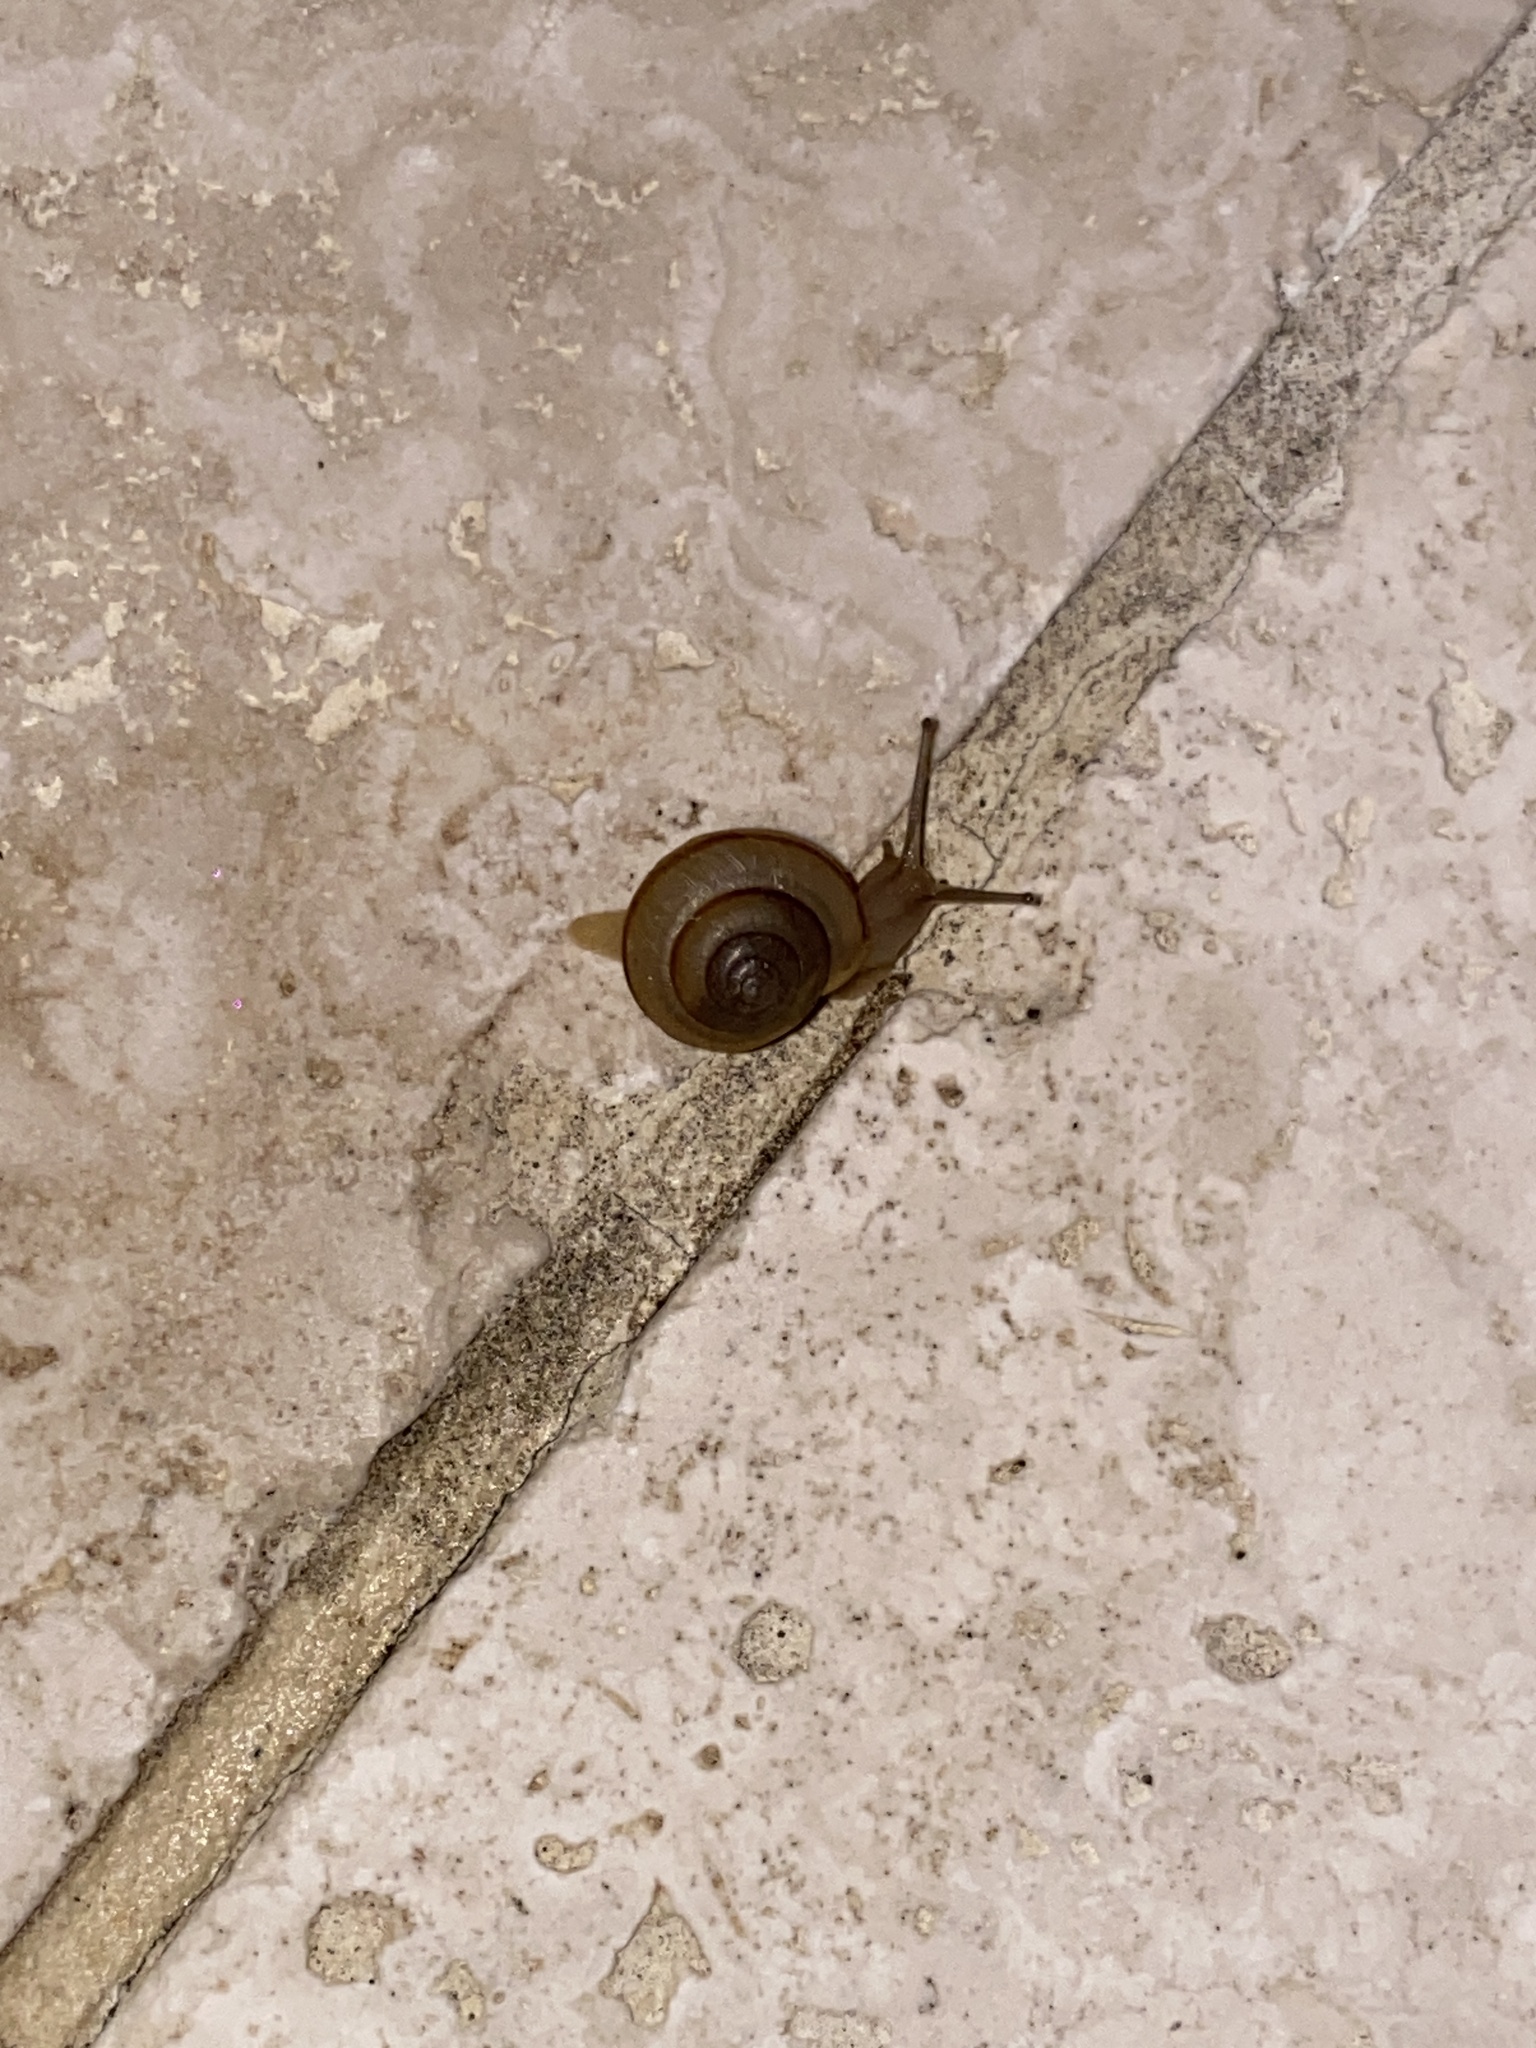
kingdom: Animalia
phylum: Mollusca
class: Gastropoda
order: Stylommatophora
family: Camaenidae
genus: Bradybaena
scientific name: Bradybaena similaris
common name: Asian trampsnail
